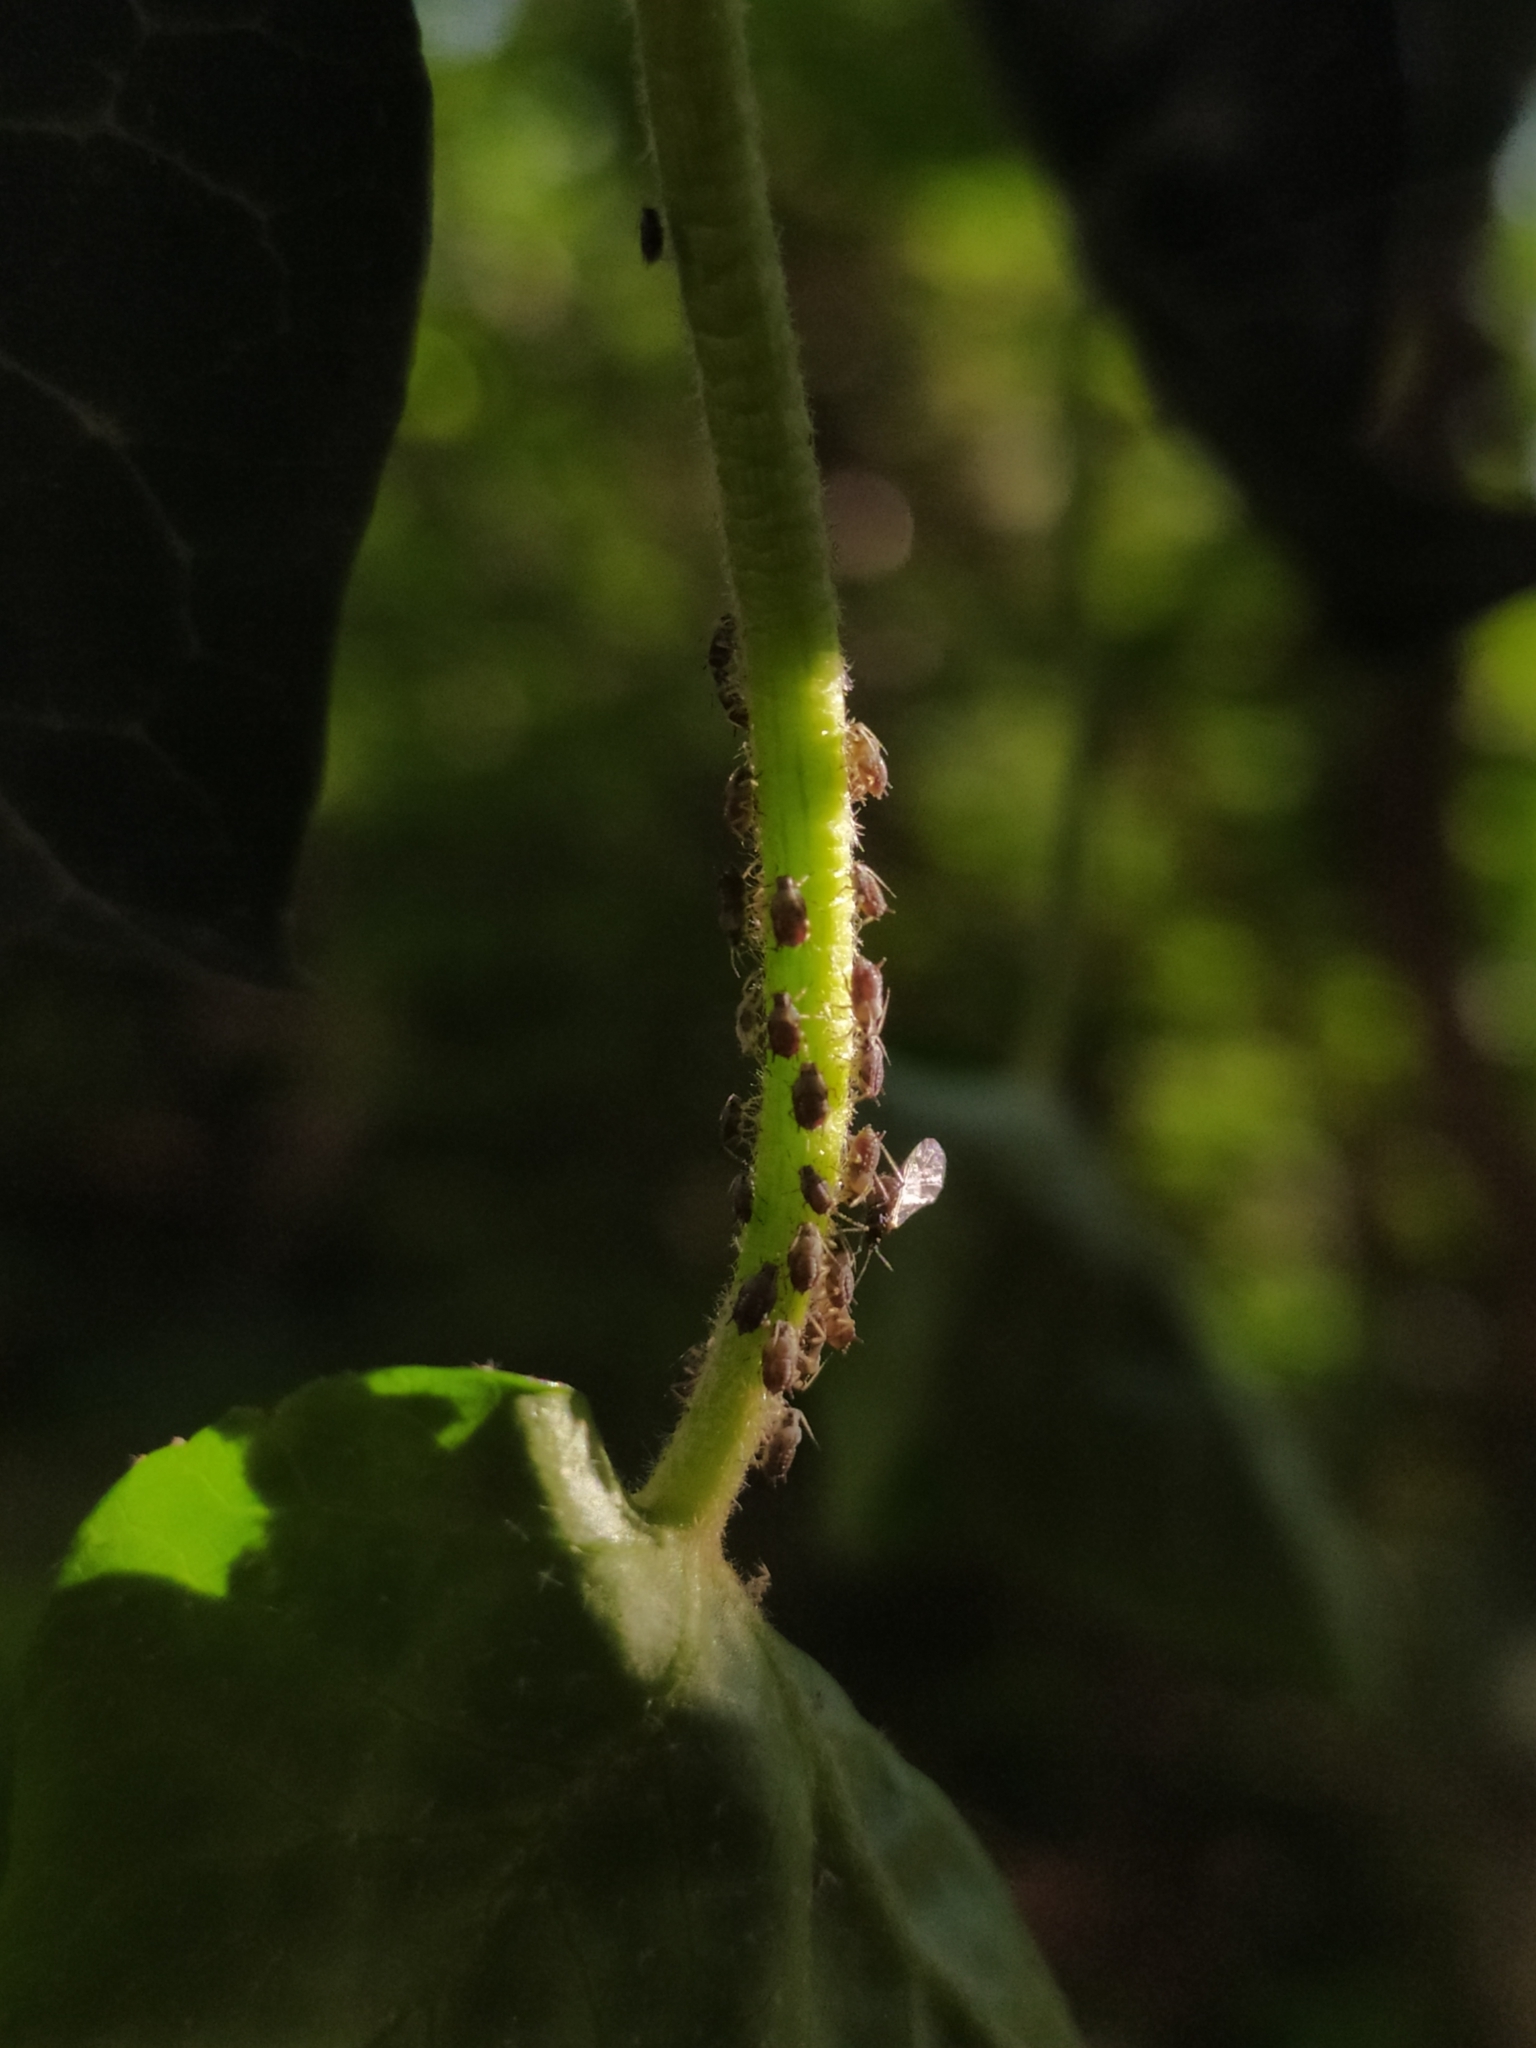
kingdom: Animalia
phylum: Arthropoda
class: Insecta
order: Hemiptera
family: Aphididae
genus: Aphis
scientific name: Aphis hederae
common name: Ivy aphid
